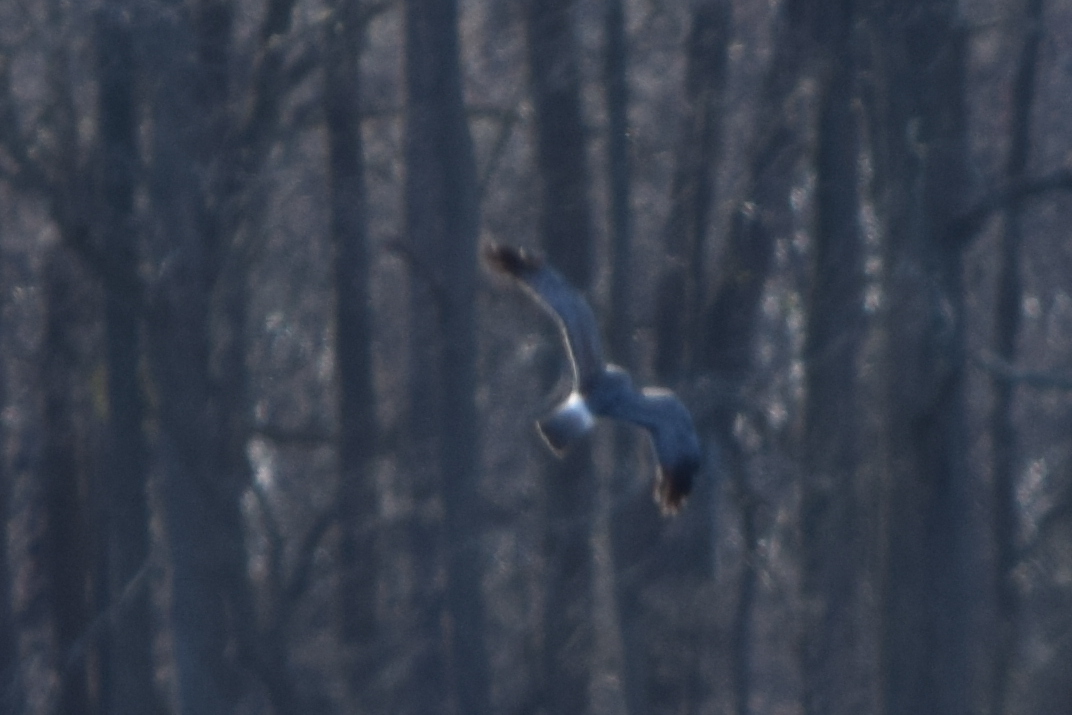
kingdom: Animalia
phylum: Chordata
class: Aves
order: Accipitriformes
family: Accipitridae
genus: Circus
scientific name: Circus cyaneus
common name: Hen harrier
